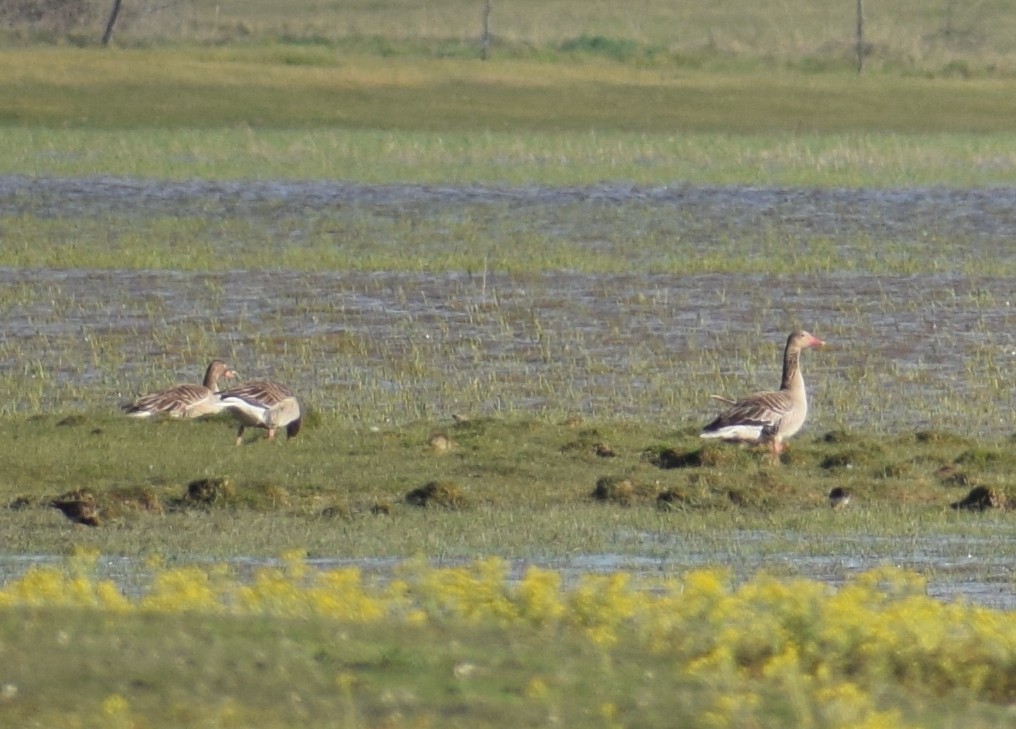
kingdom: Animalia
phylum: Chordata
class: Aves
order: Anseriformes
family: Anatidae
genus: Anser
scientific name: Anser anser
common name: Greylag goose
